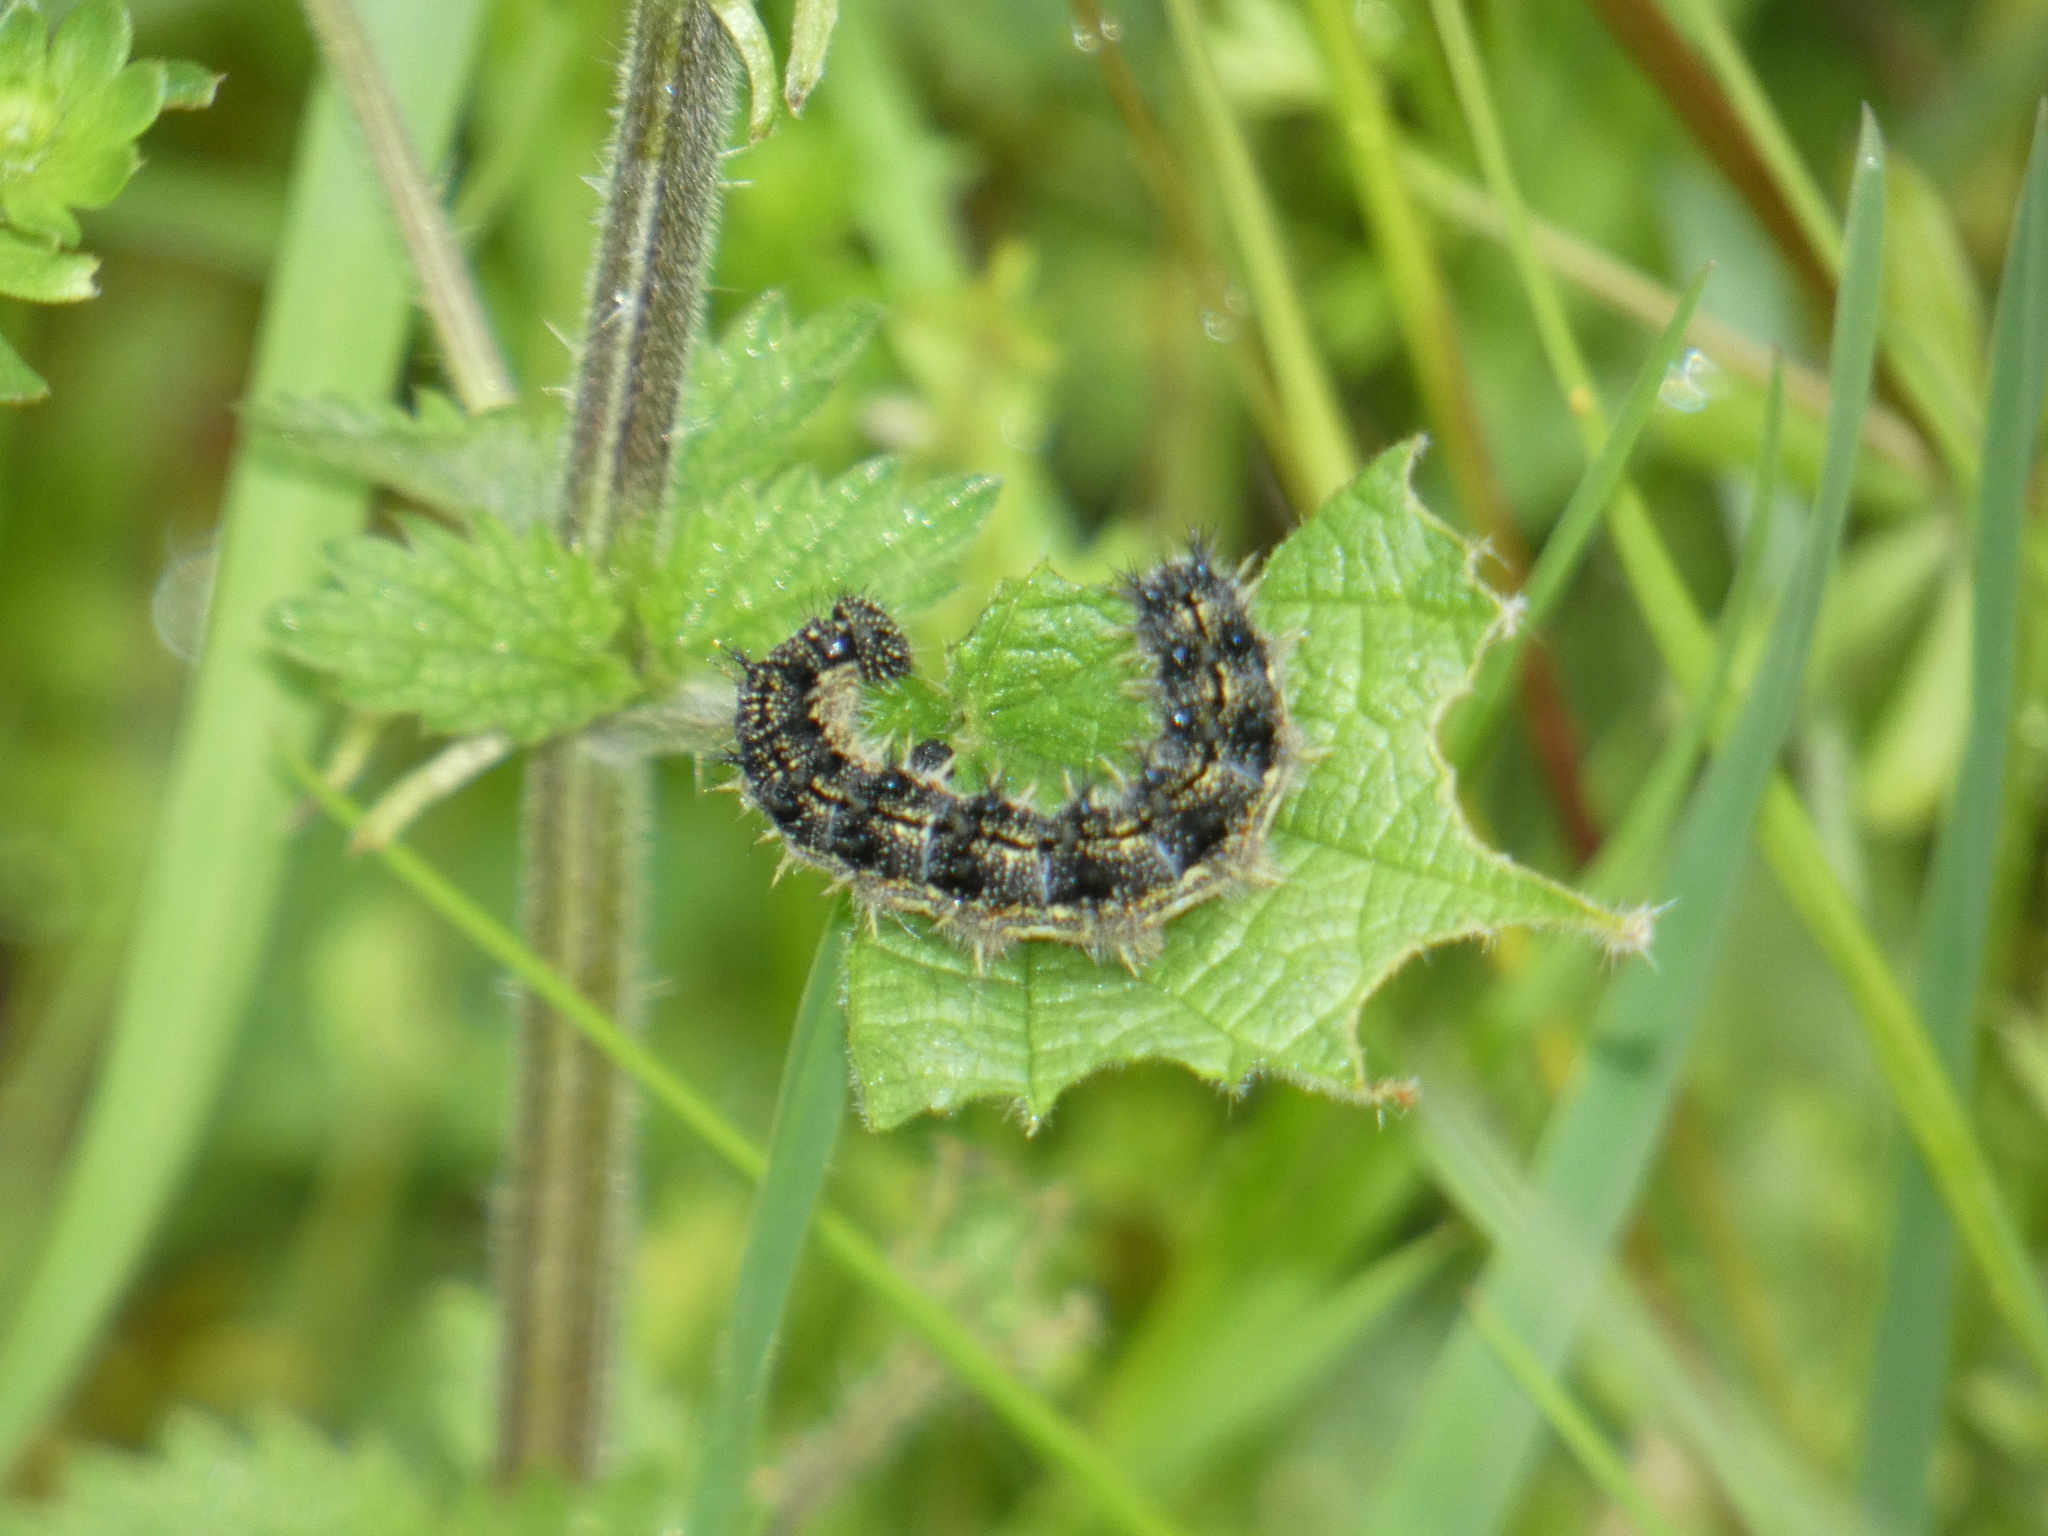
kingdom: Animalia
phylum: Arthropoda
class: Insecta
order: Lepidoptera
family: Nymphalidae
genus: Aglais
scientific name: Aglais urticae
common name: Small tortoiseshell
